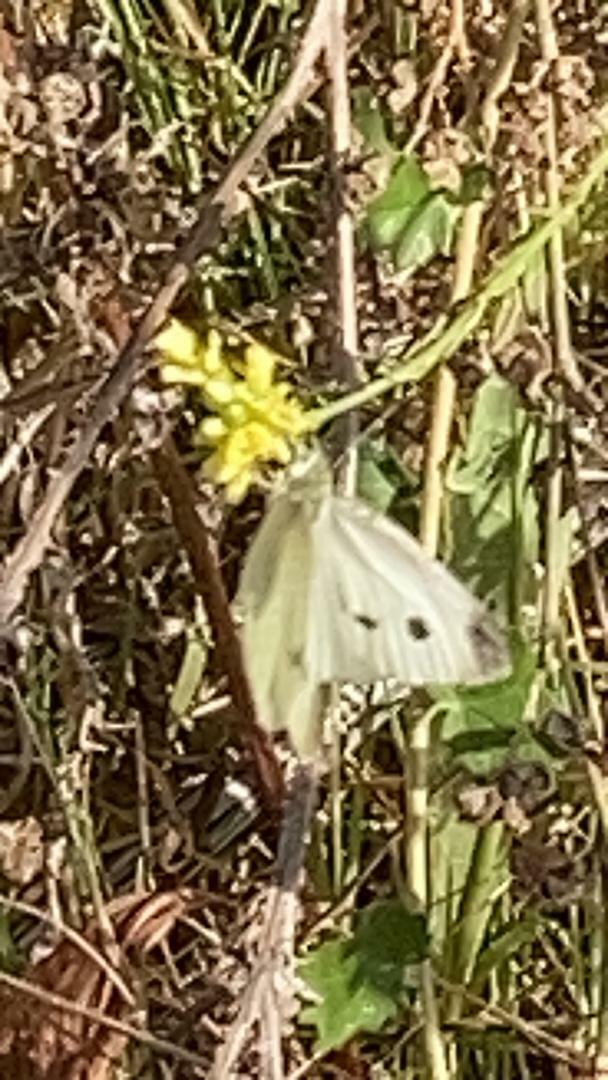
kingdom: Animalia
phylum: Arthropoda
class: Insecta
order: Lepidoptera
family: Pieridae
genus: Pieris
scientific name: Pieris rapae
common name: Small white
